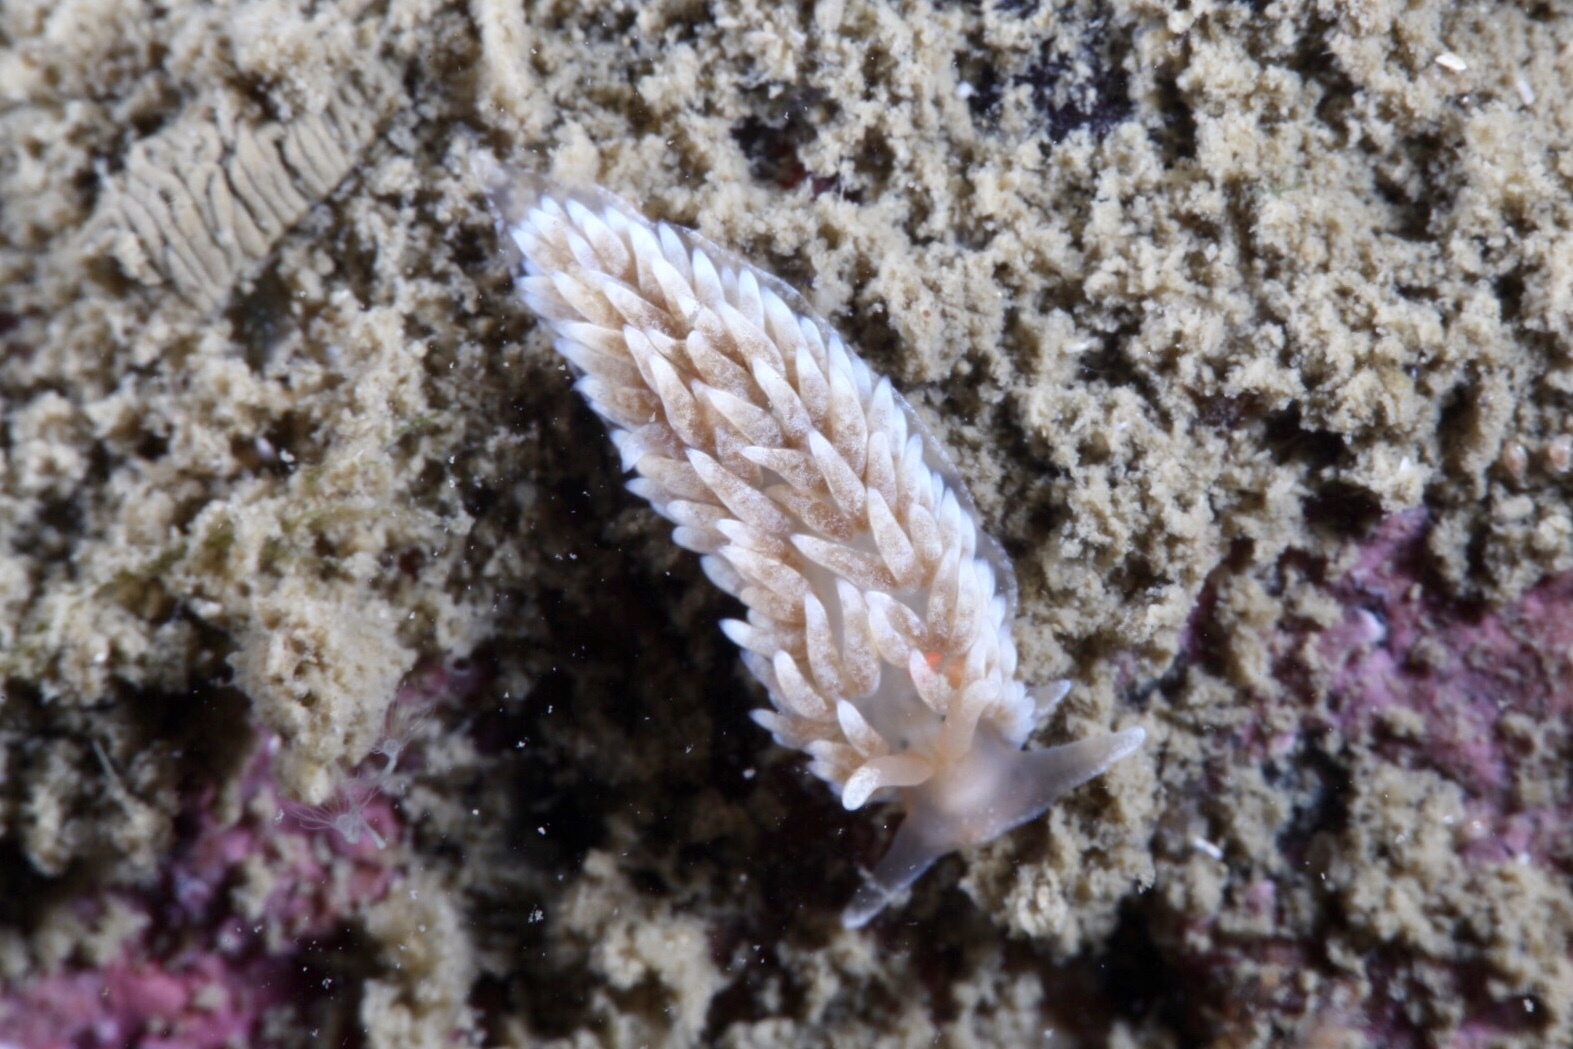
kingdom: Animalia
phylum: Mollusca
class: Gastropoda
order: Nudibranchia
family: Aeolidiidae
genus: Aeolidiella
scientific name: Aeolidiella glauca
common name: Orange-brown aeolid
